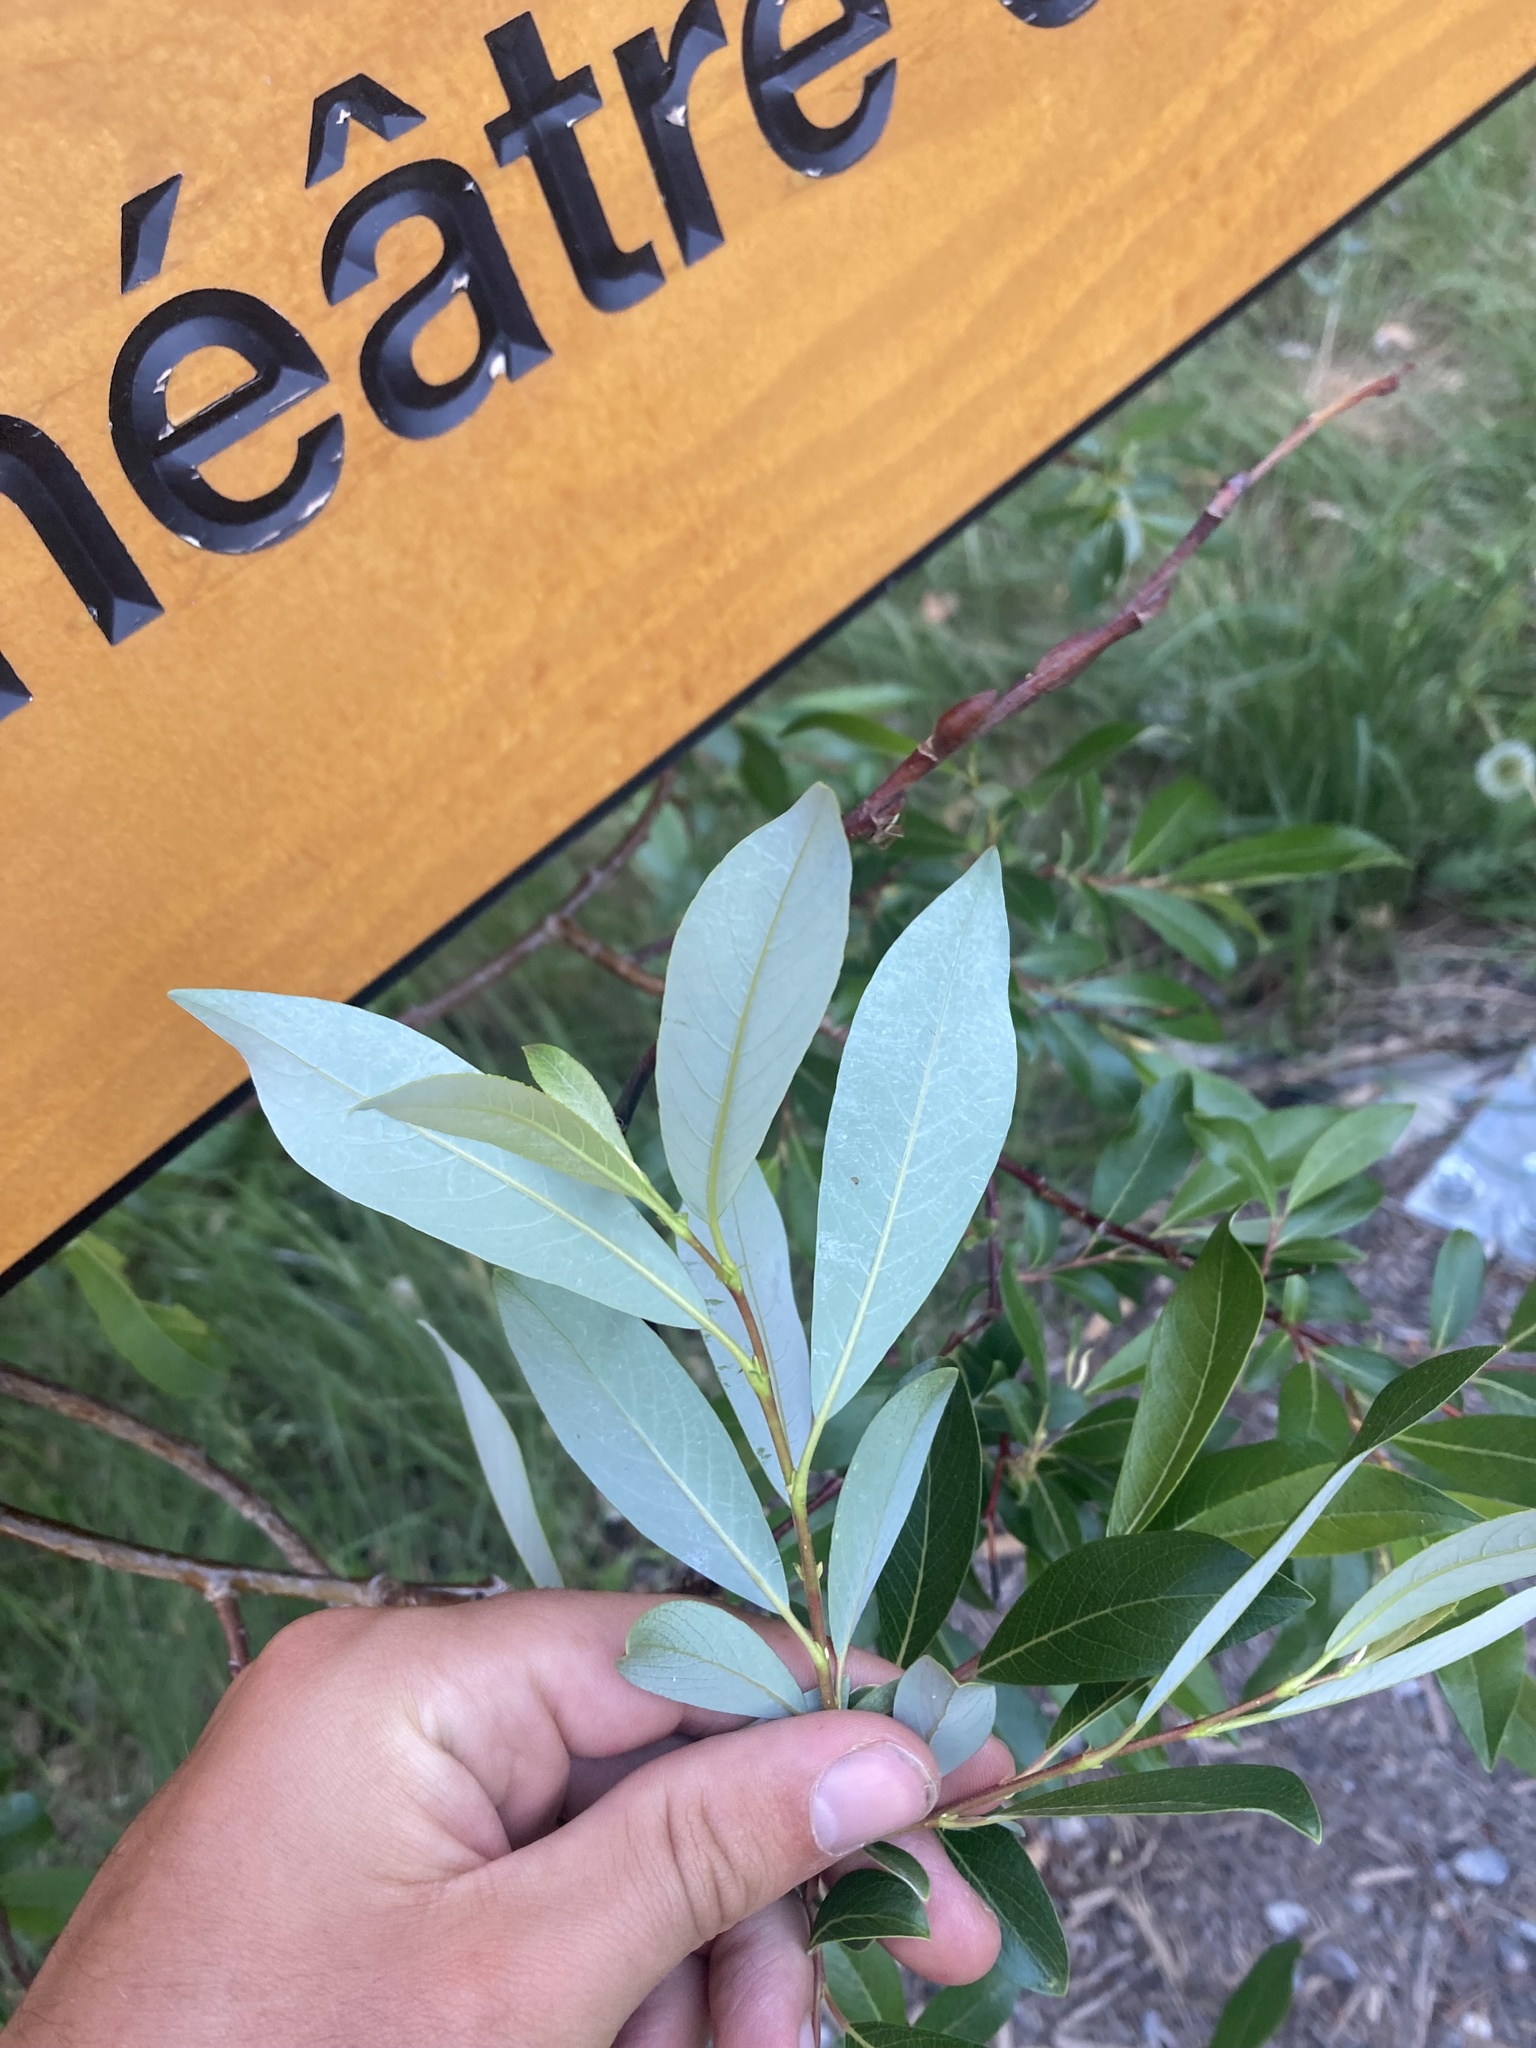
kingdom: Plantae
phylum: Tracheophyta
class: Magnoliopsida
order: Malpighiales
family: Salicaceae
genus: Salix
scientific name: Salix planifolia
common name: Mountain willow
